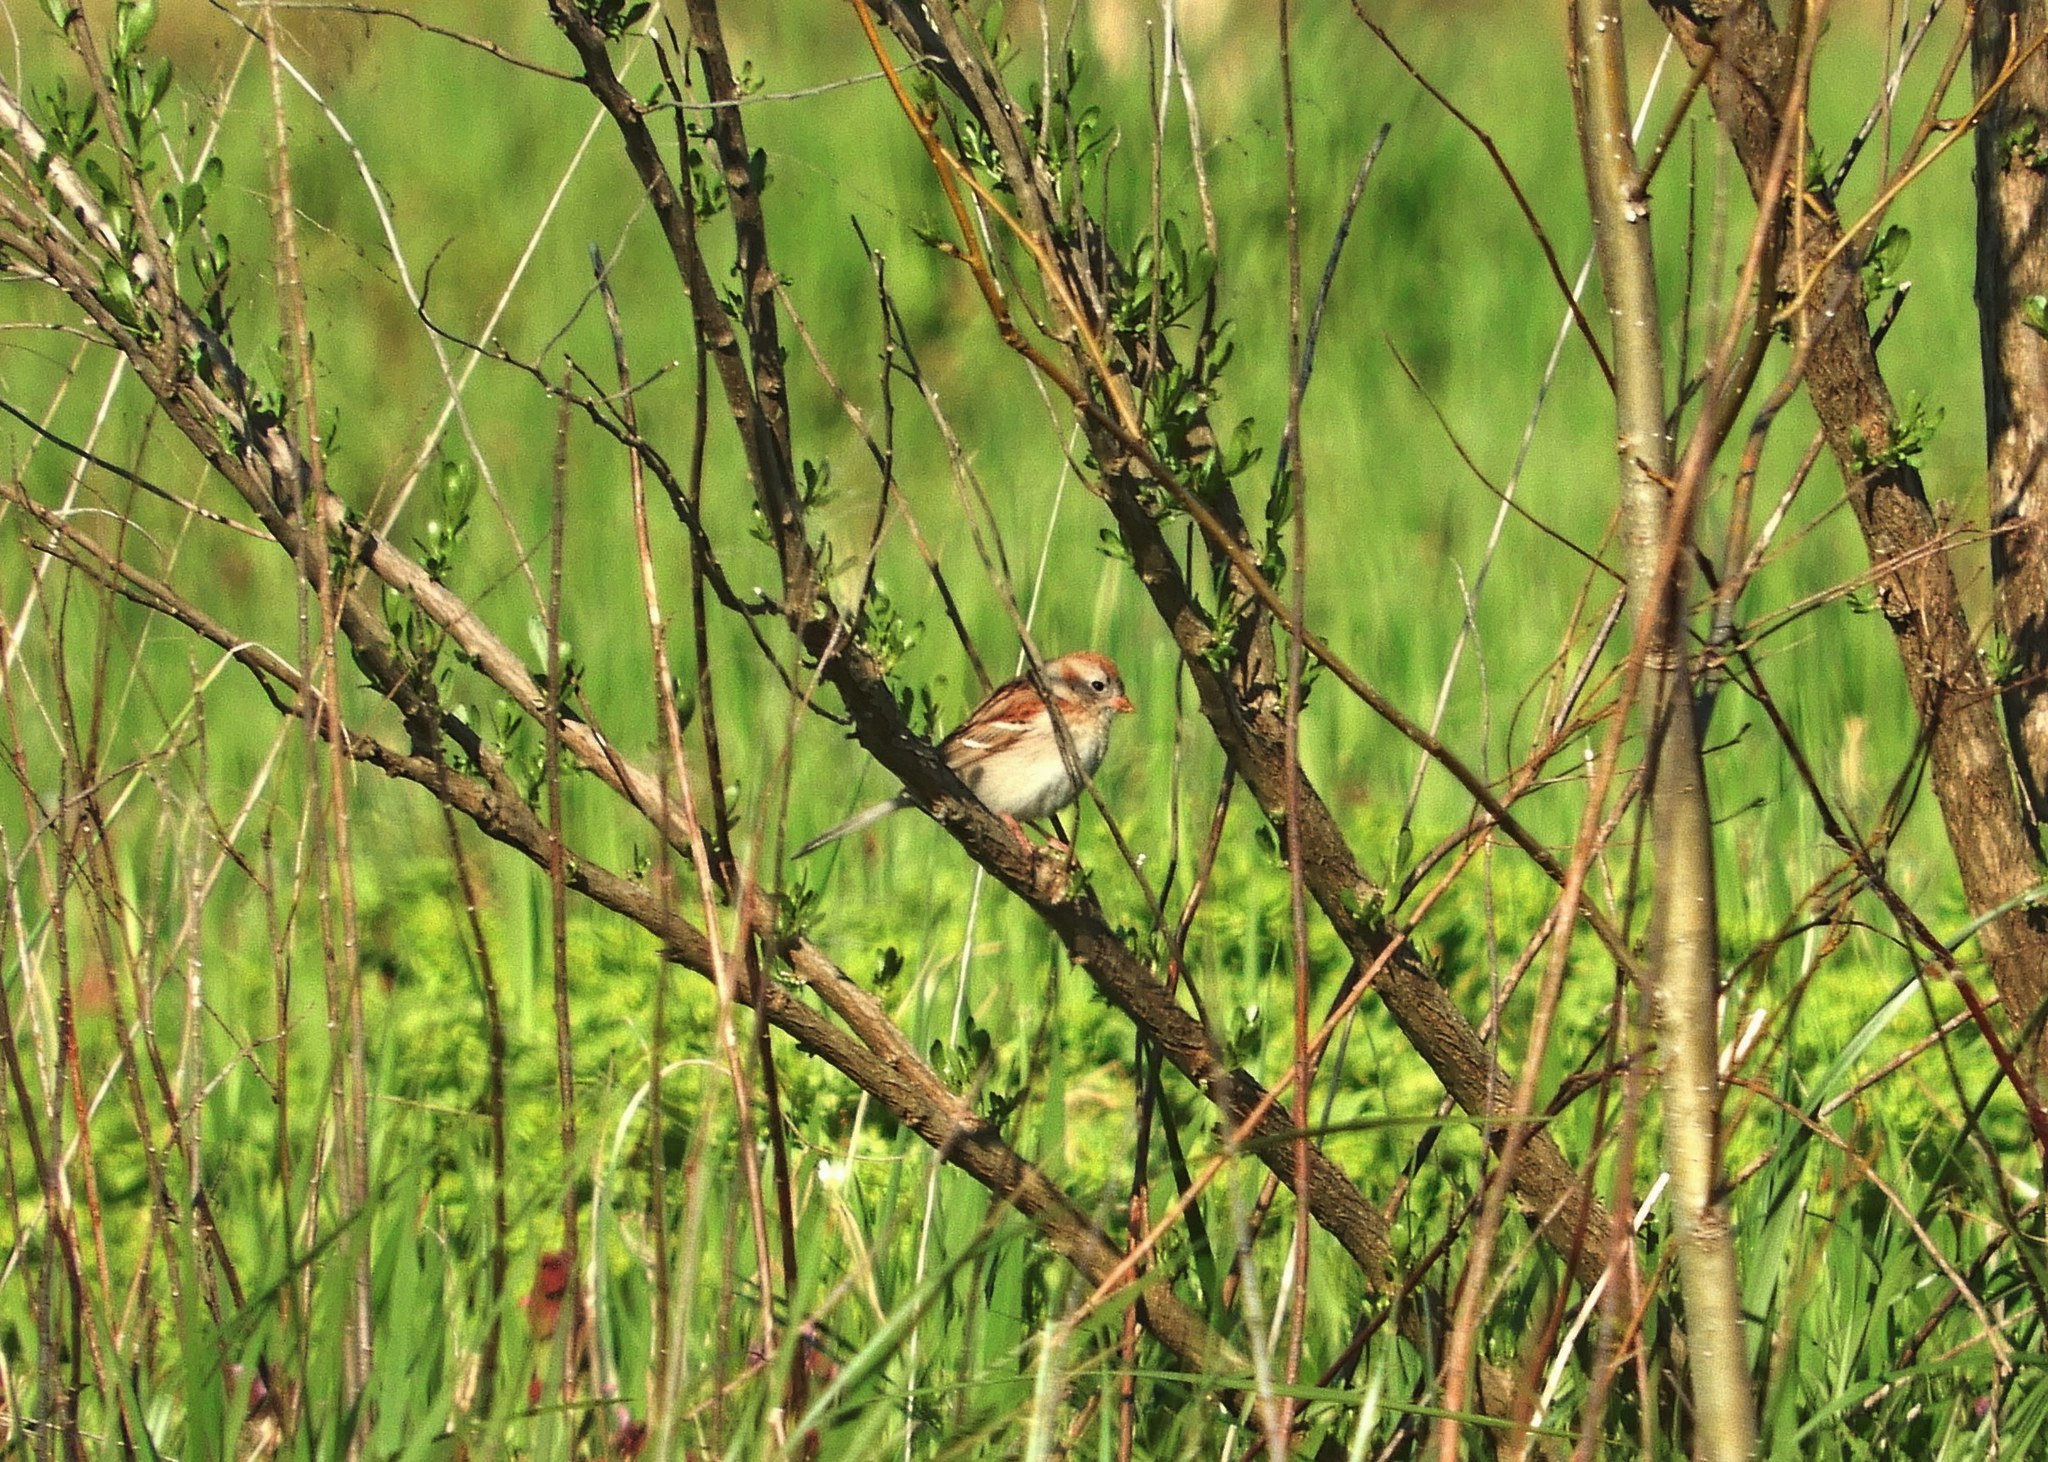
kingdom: Animalia
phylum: Chordata
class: Aves
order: Passeriformes
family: Passerellidae
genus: Spizella
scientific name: Spizella pusilla
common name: Field sparrow
